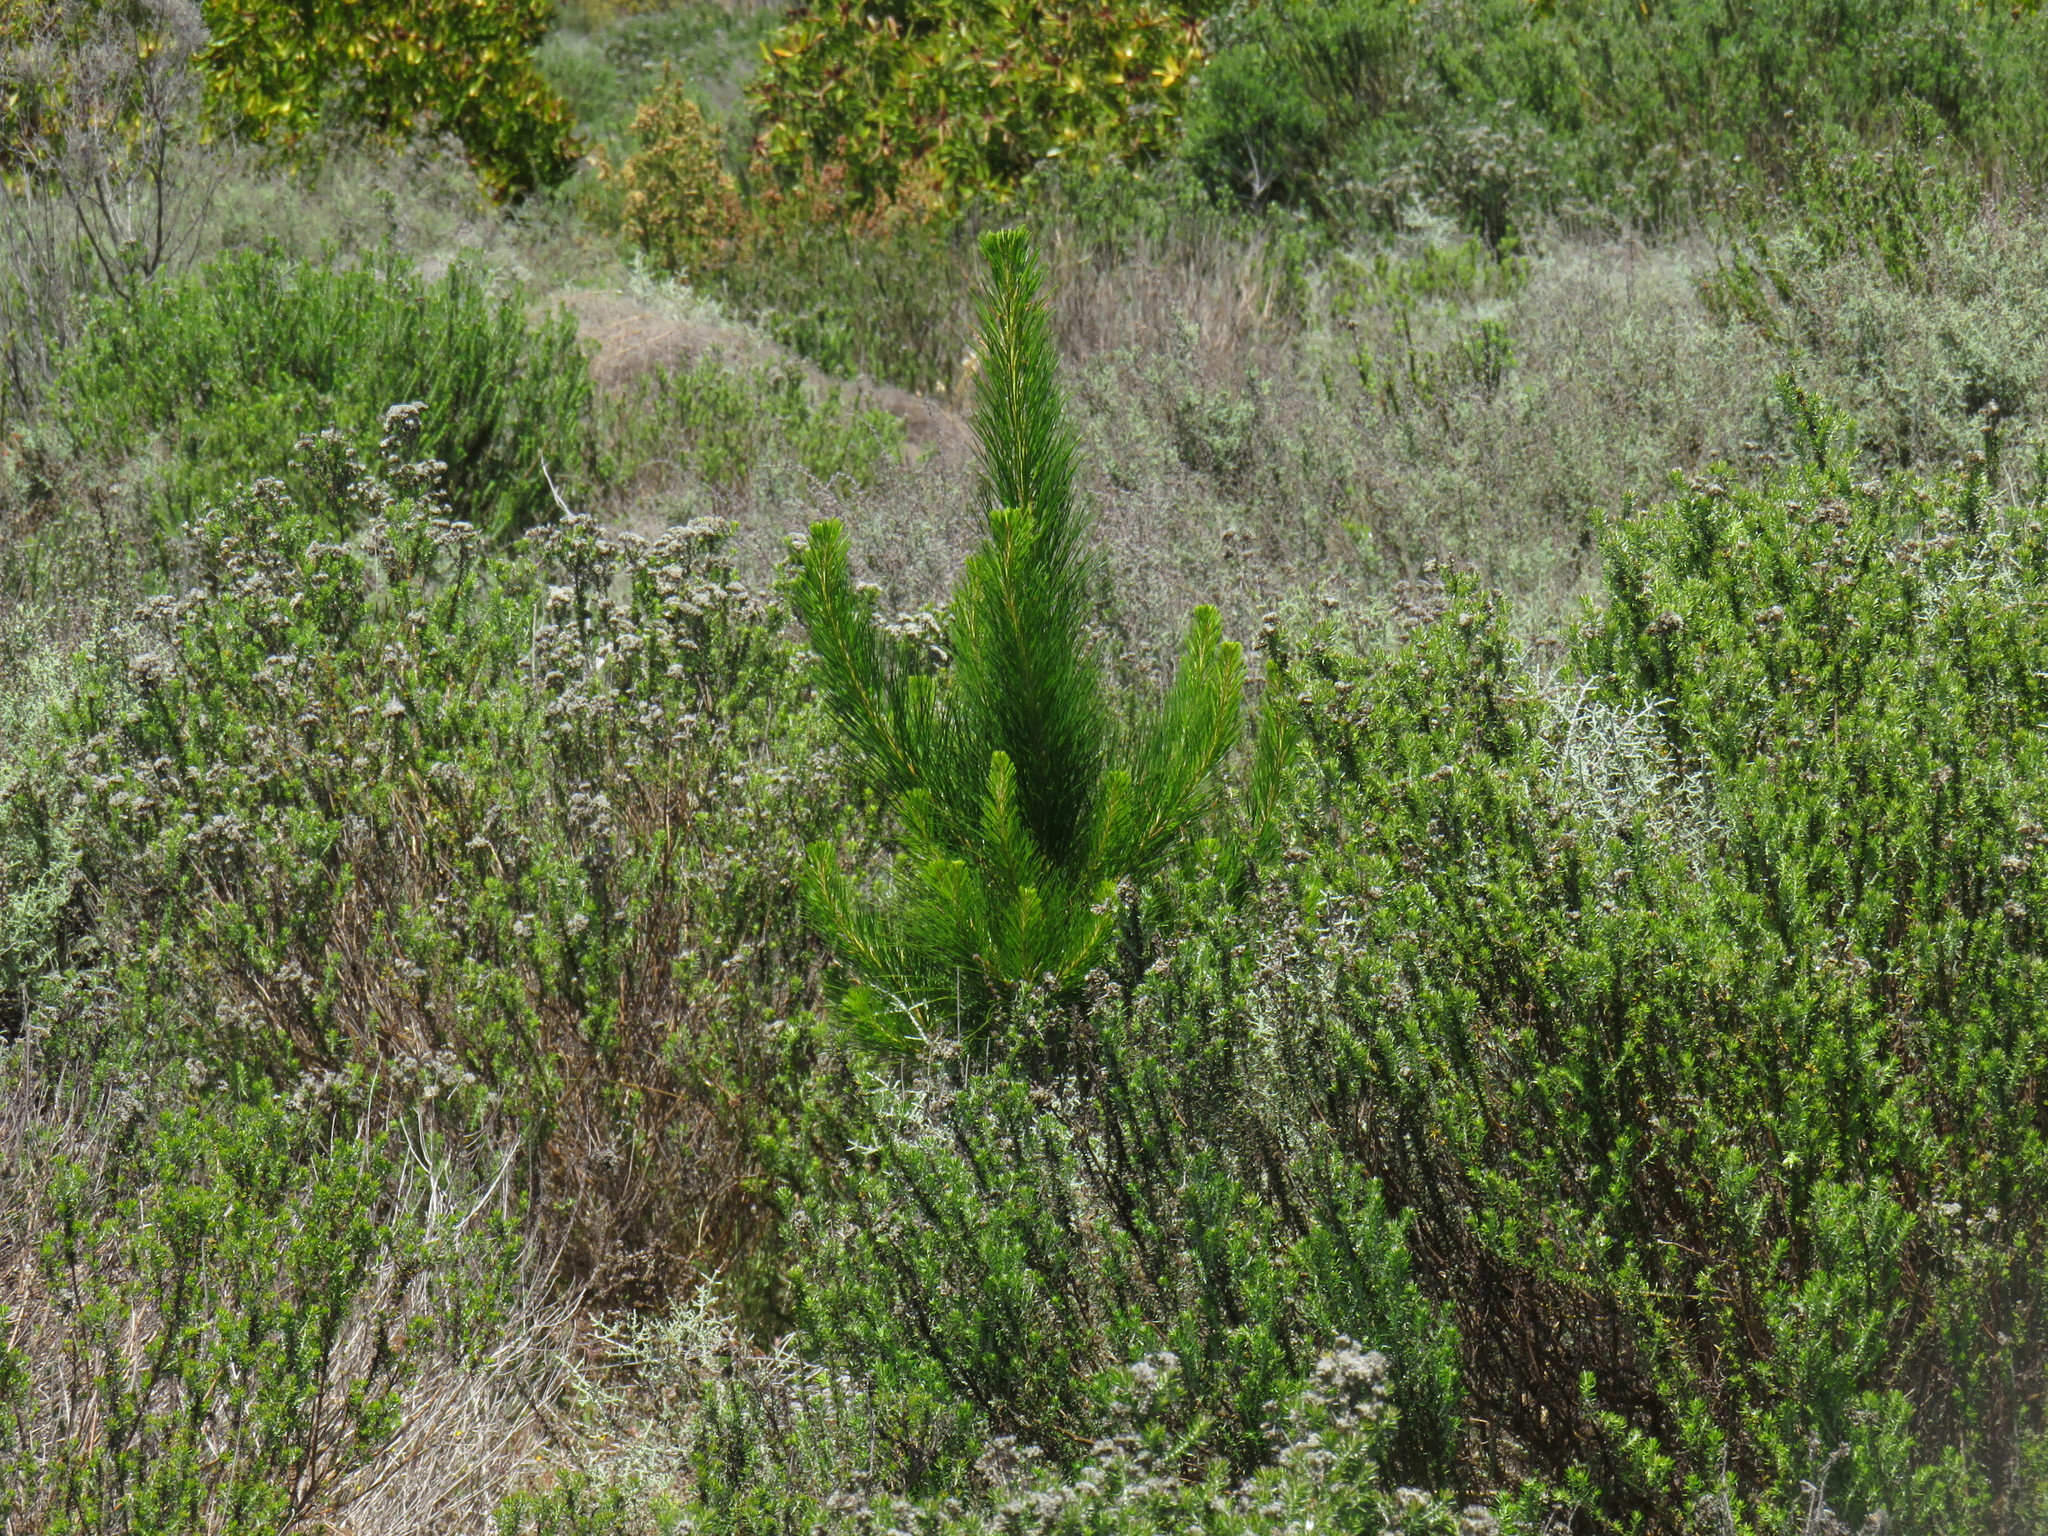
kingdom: Plantae
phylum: Tracheophyta
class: Pinopsida
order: Pinales
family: Pinaceae
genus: Pinus
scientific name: Pinus radiata
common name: Monterey pine
